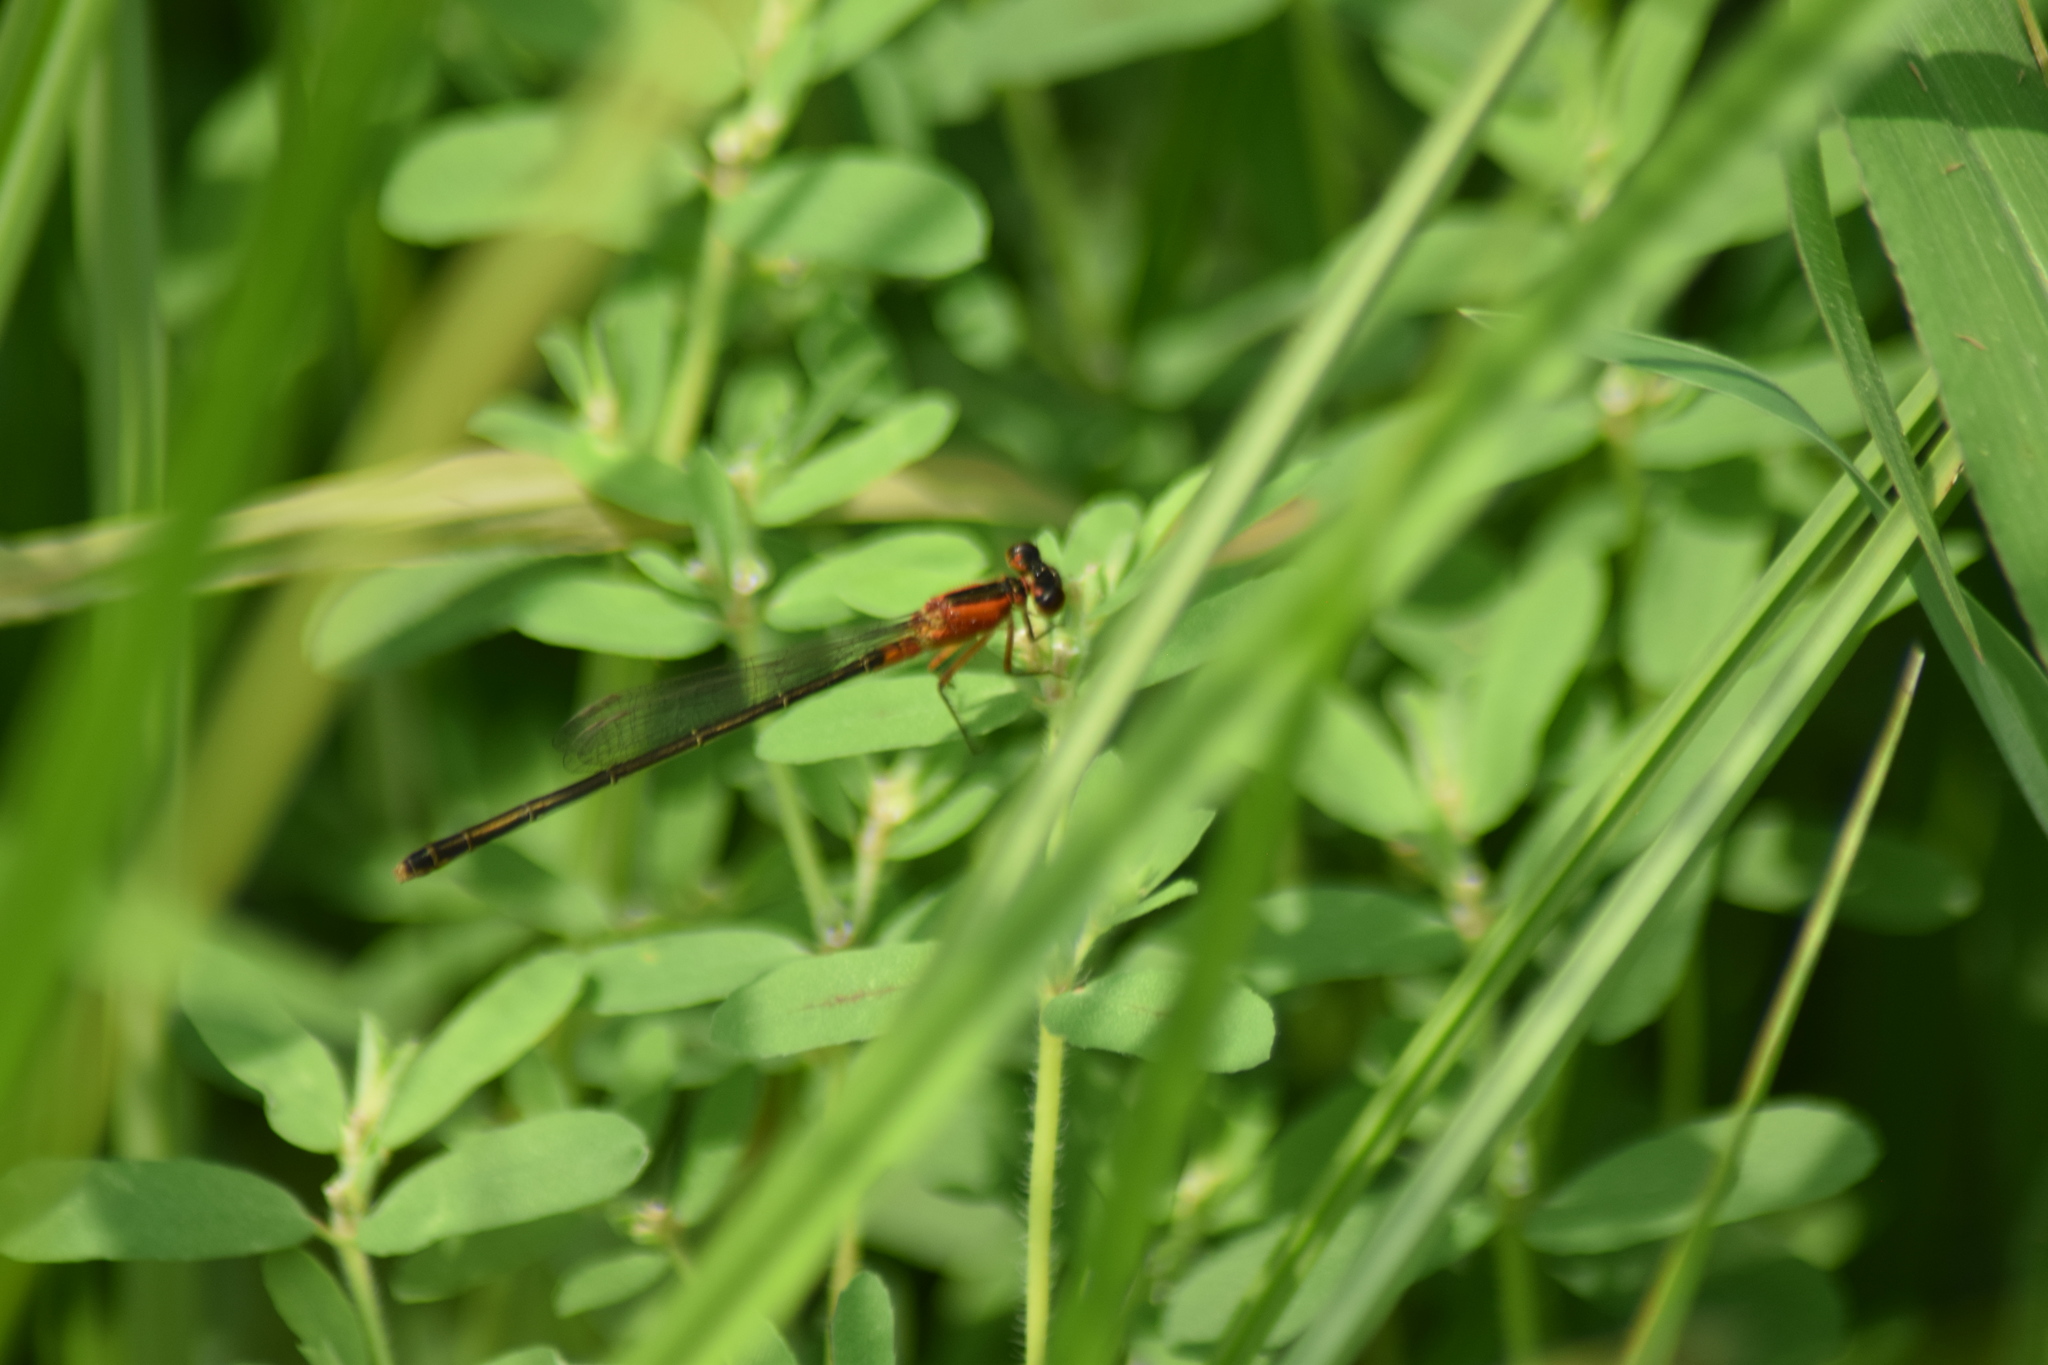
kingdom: Animalia
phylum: Arthropoda
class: Insecta
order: Odonata
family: Coenagrionidae
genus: Ischnura
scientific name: Ischnura ramburii
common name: Rambur's forktail
